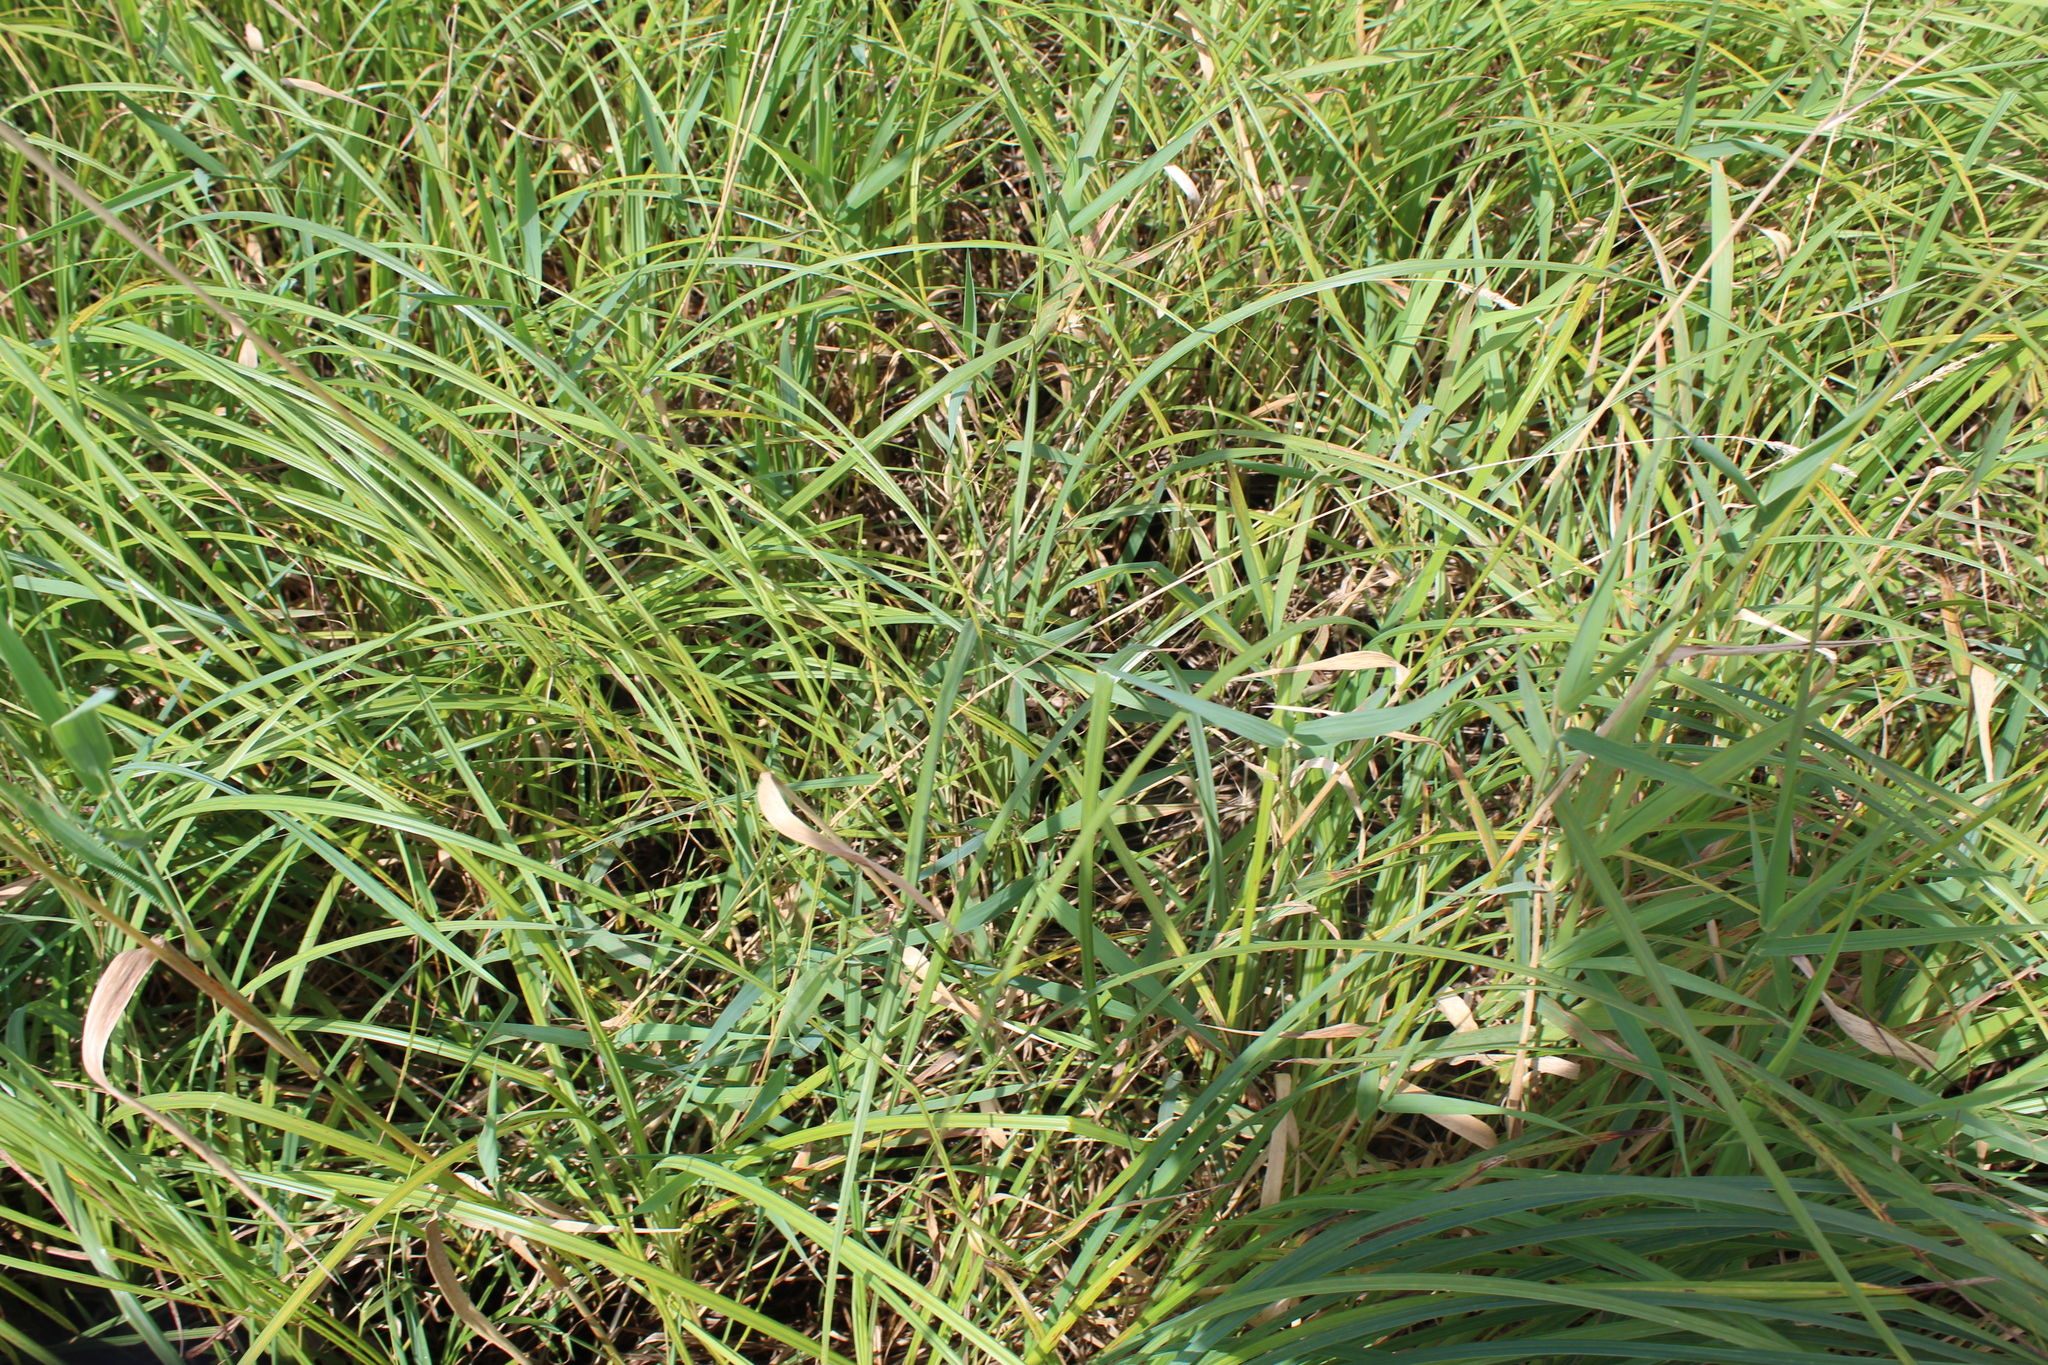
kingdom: Plantae
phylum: Tracheophyta
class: Liliopsida
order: Poales
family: Poaceae
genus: Phalaris
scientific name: Phalaris arundinacea
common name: Reed canary-grass
